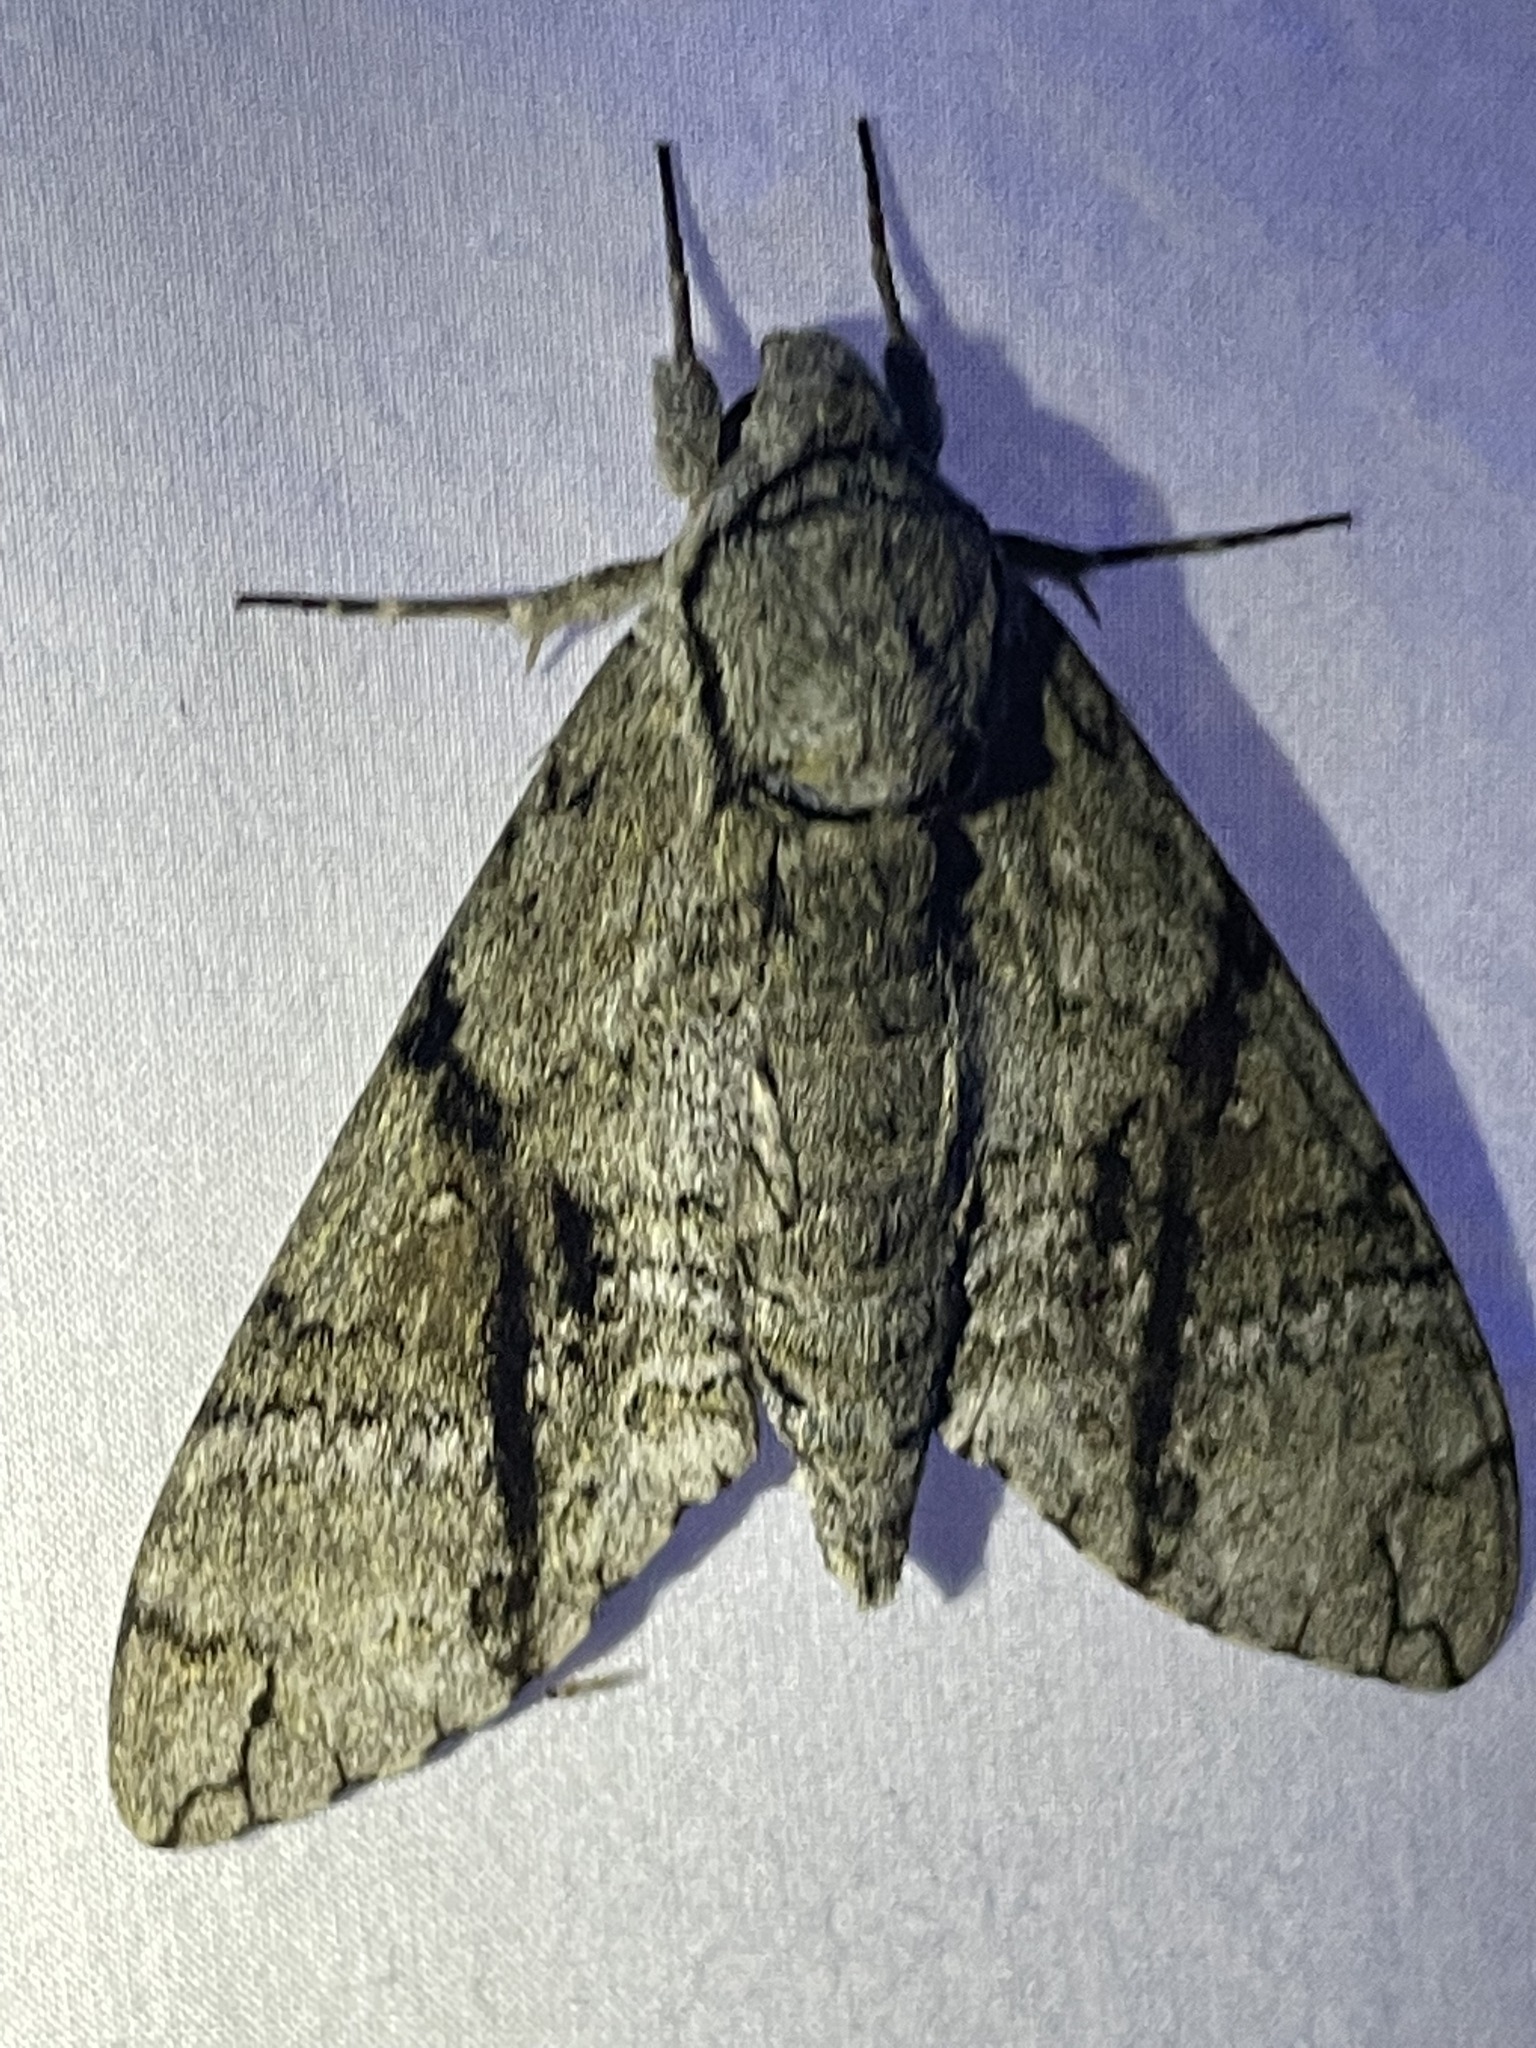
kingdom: Animalia
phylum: Arthropoda
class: Insecta
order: Lepidoptera
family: Sphingidae
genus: Manduca
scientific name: Manduca jasminearum
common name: Ash sphinx
